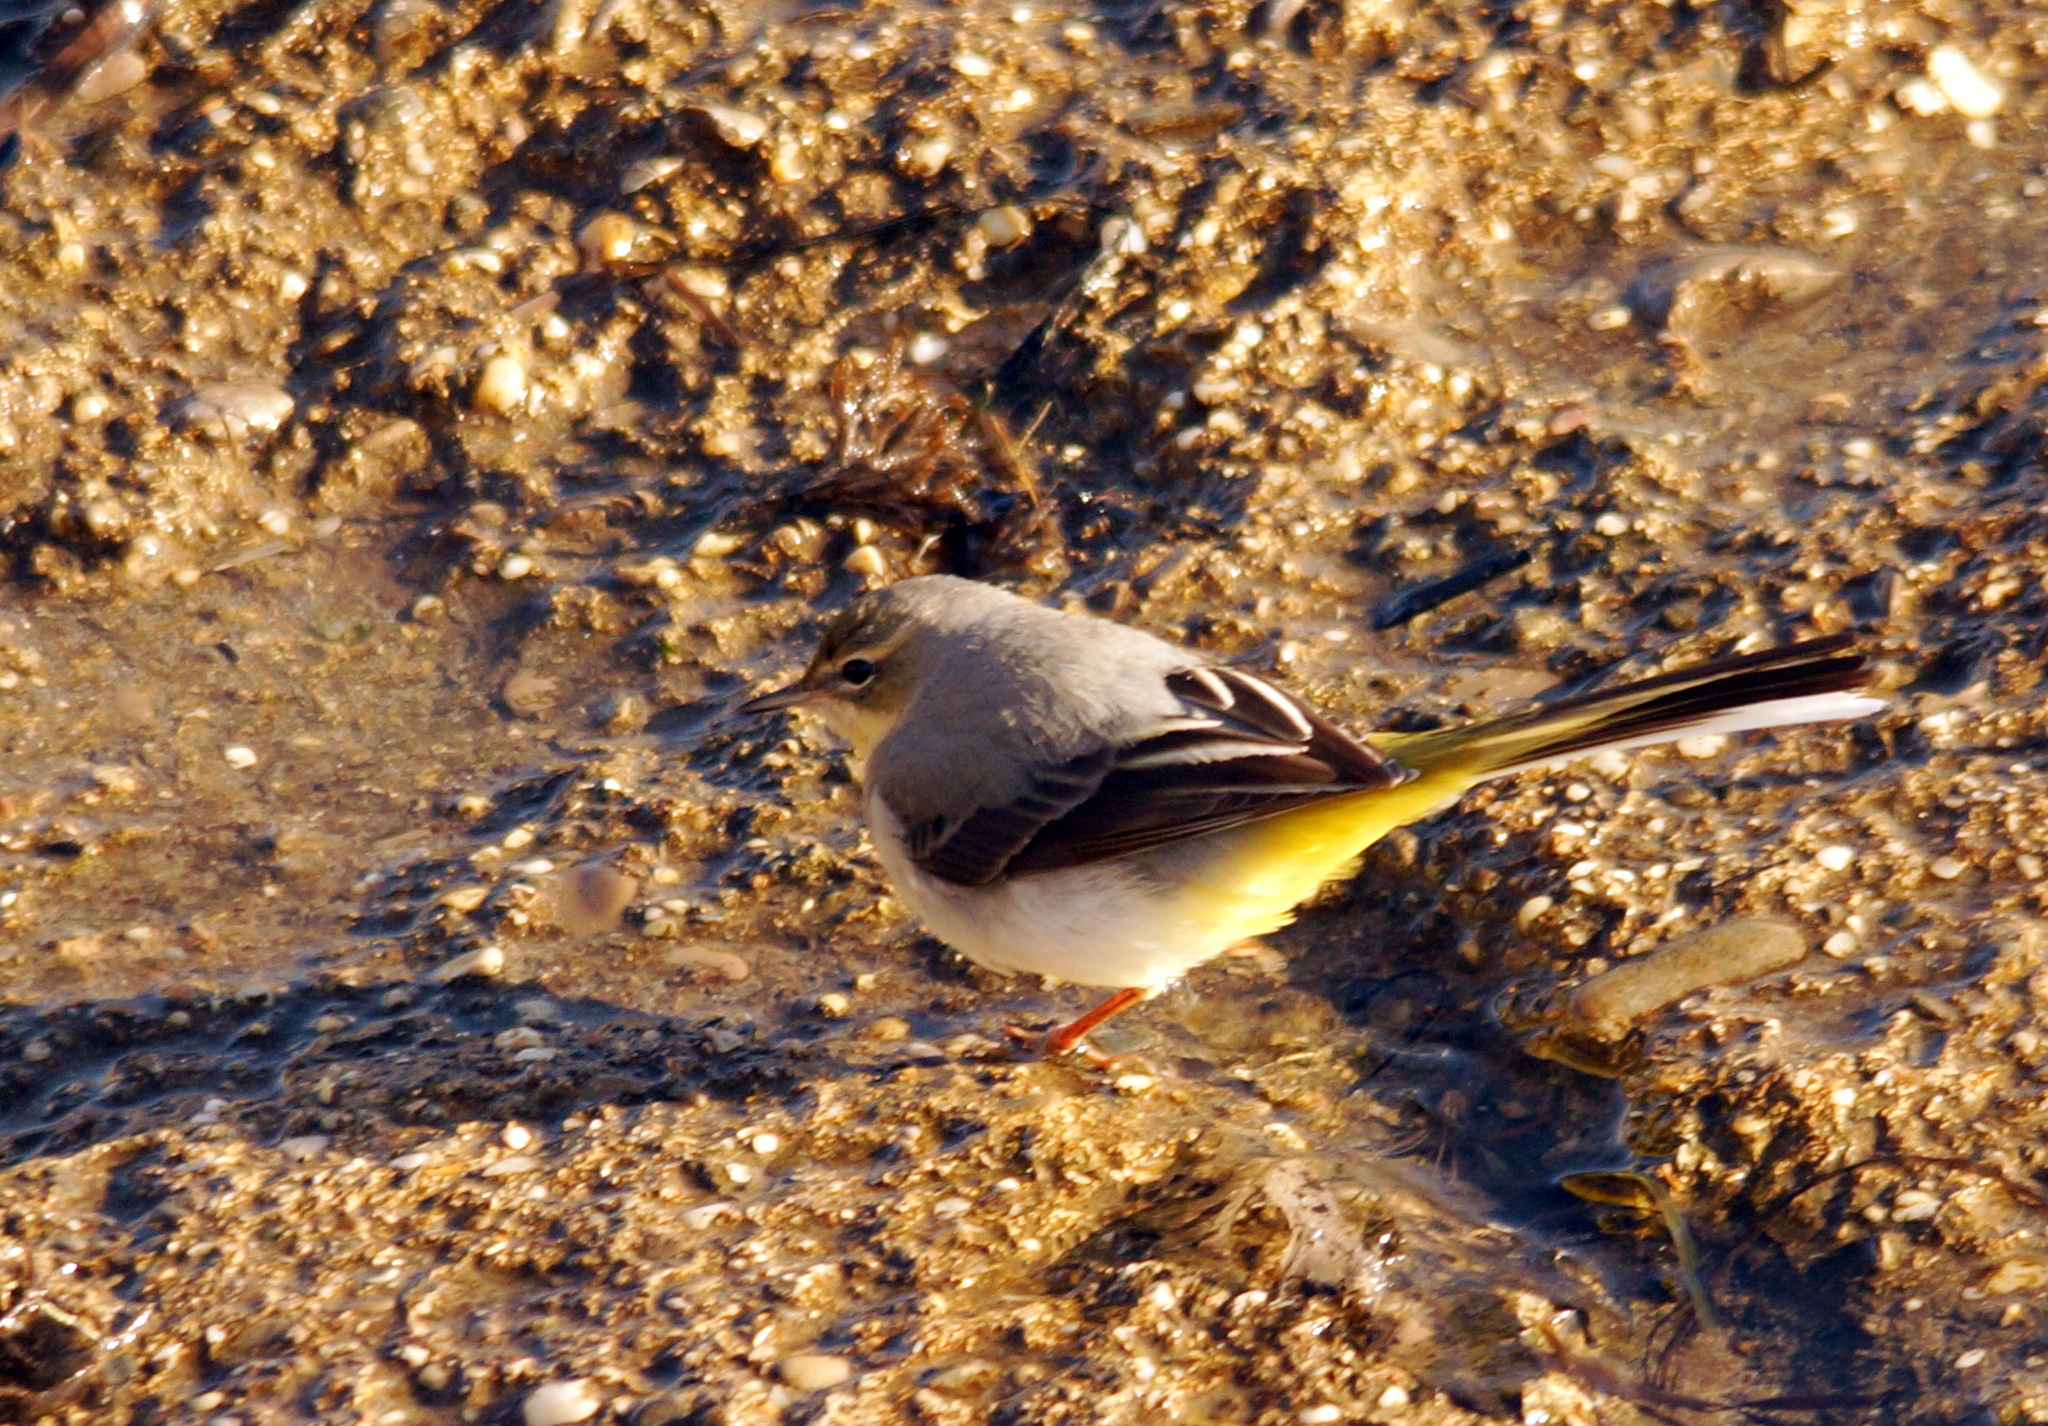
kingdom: Animalia
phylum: Chordata
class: Aves
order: Passeriformes
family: Motacillidae
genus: Motacilla
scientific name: Motacilla cinerea
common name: Grey wagtail
